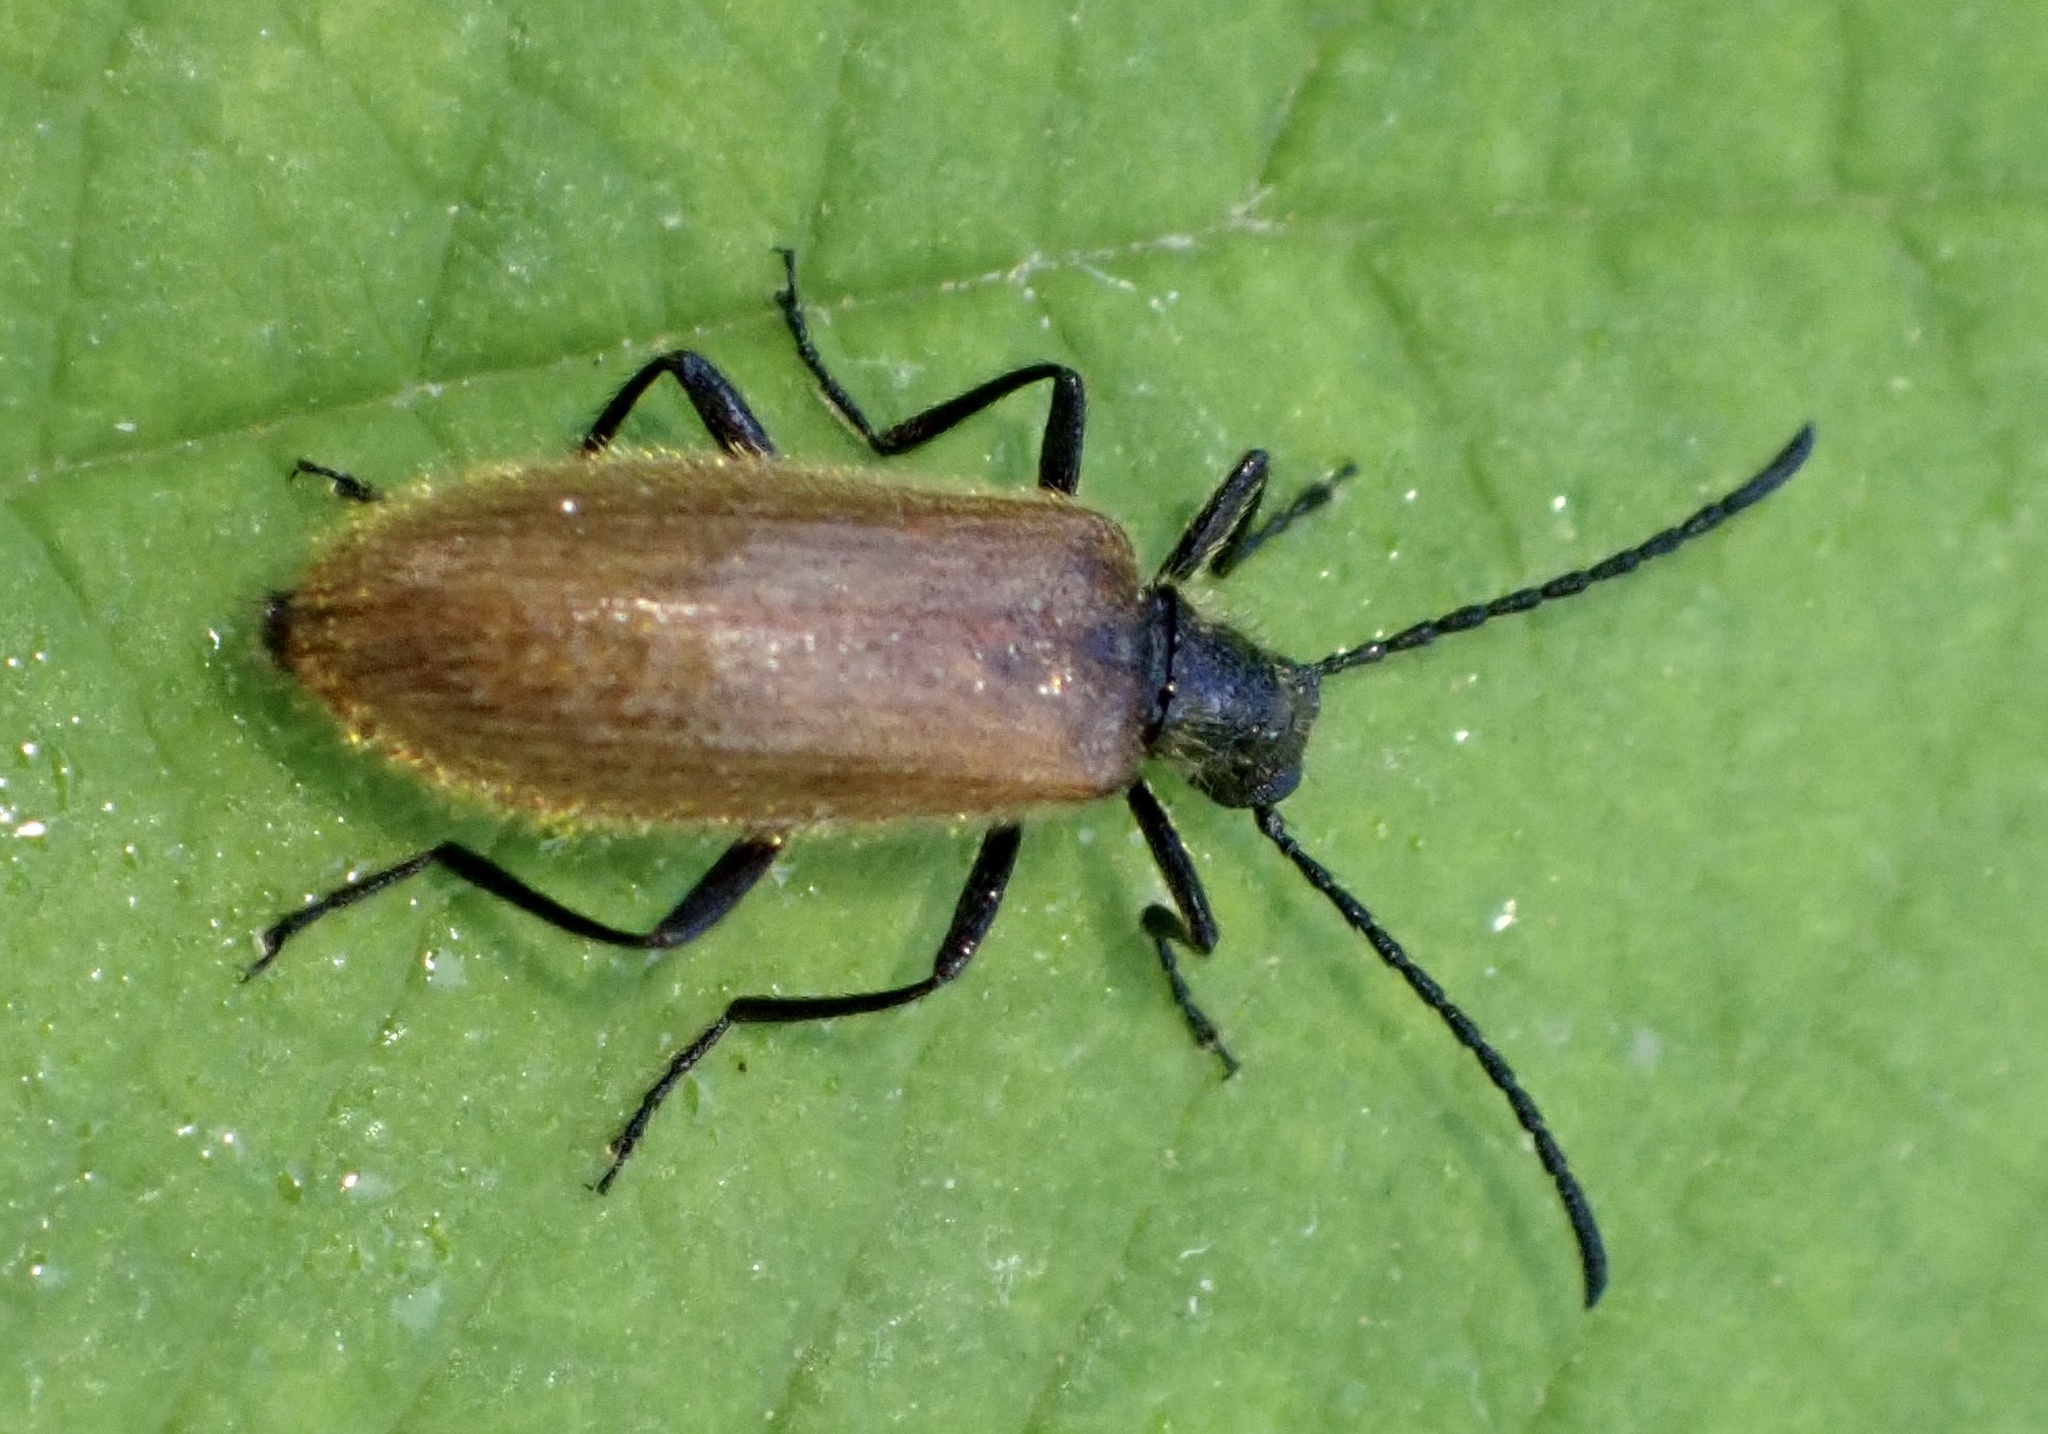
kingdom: Animalia
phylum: Arthropoda
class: Insecta
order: Coleoptera
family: Tenebrionidae
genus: Lagria
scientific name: Lagria hirta
